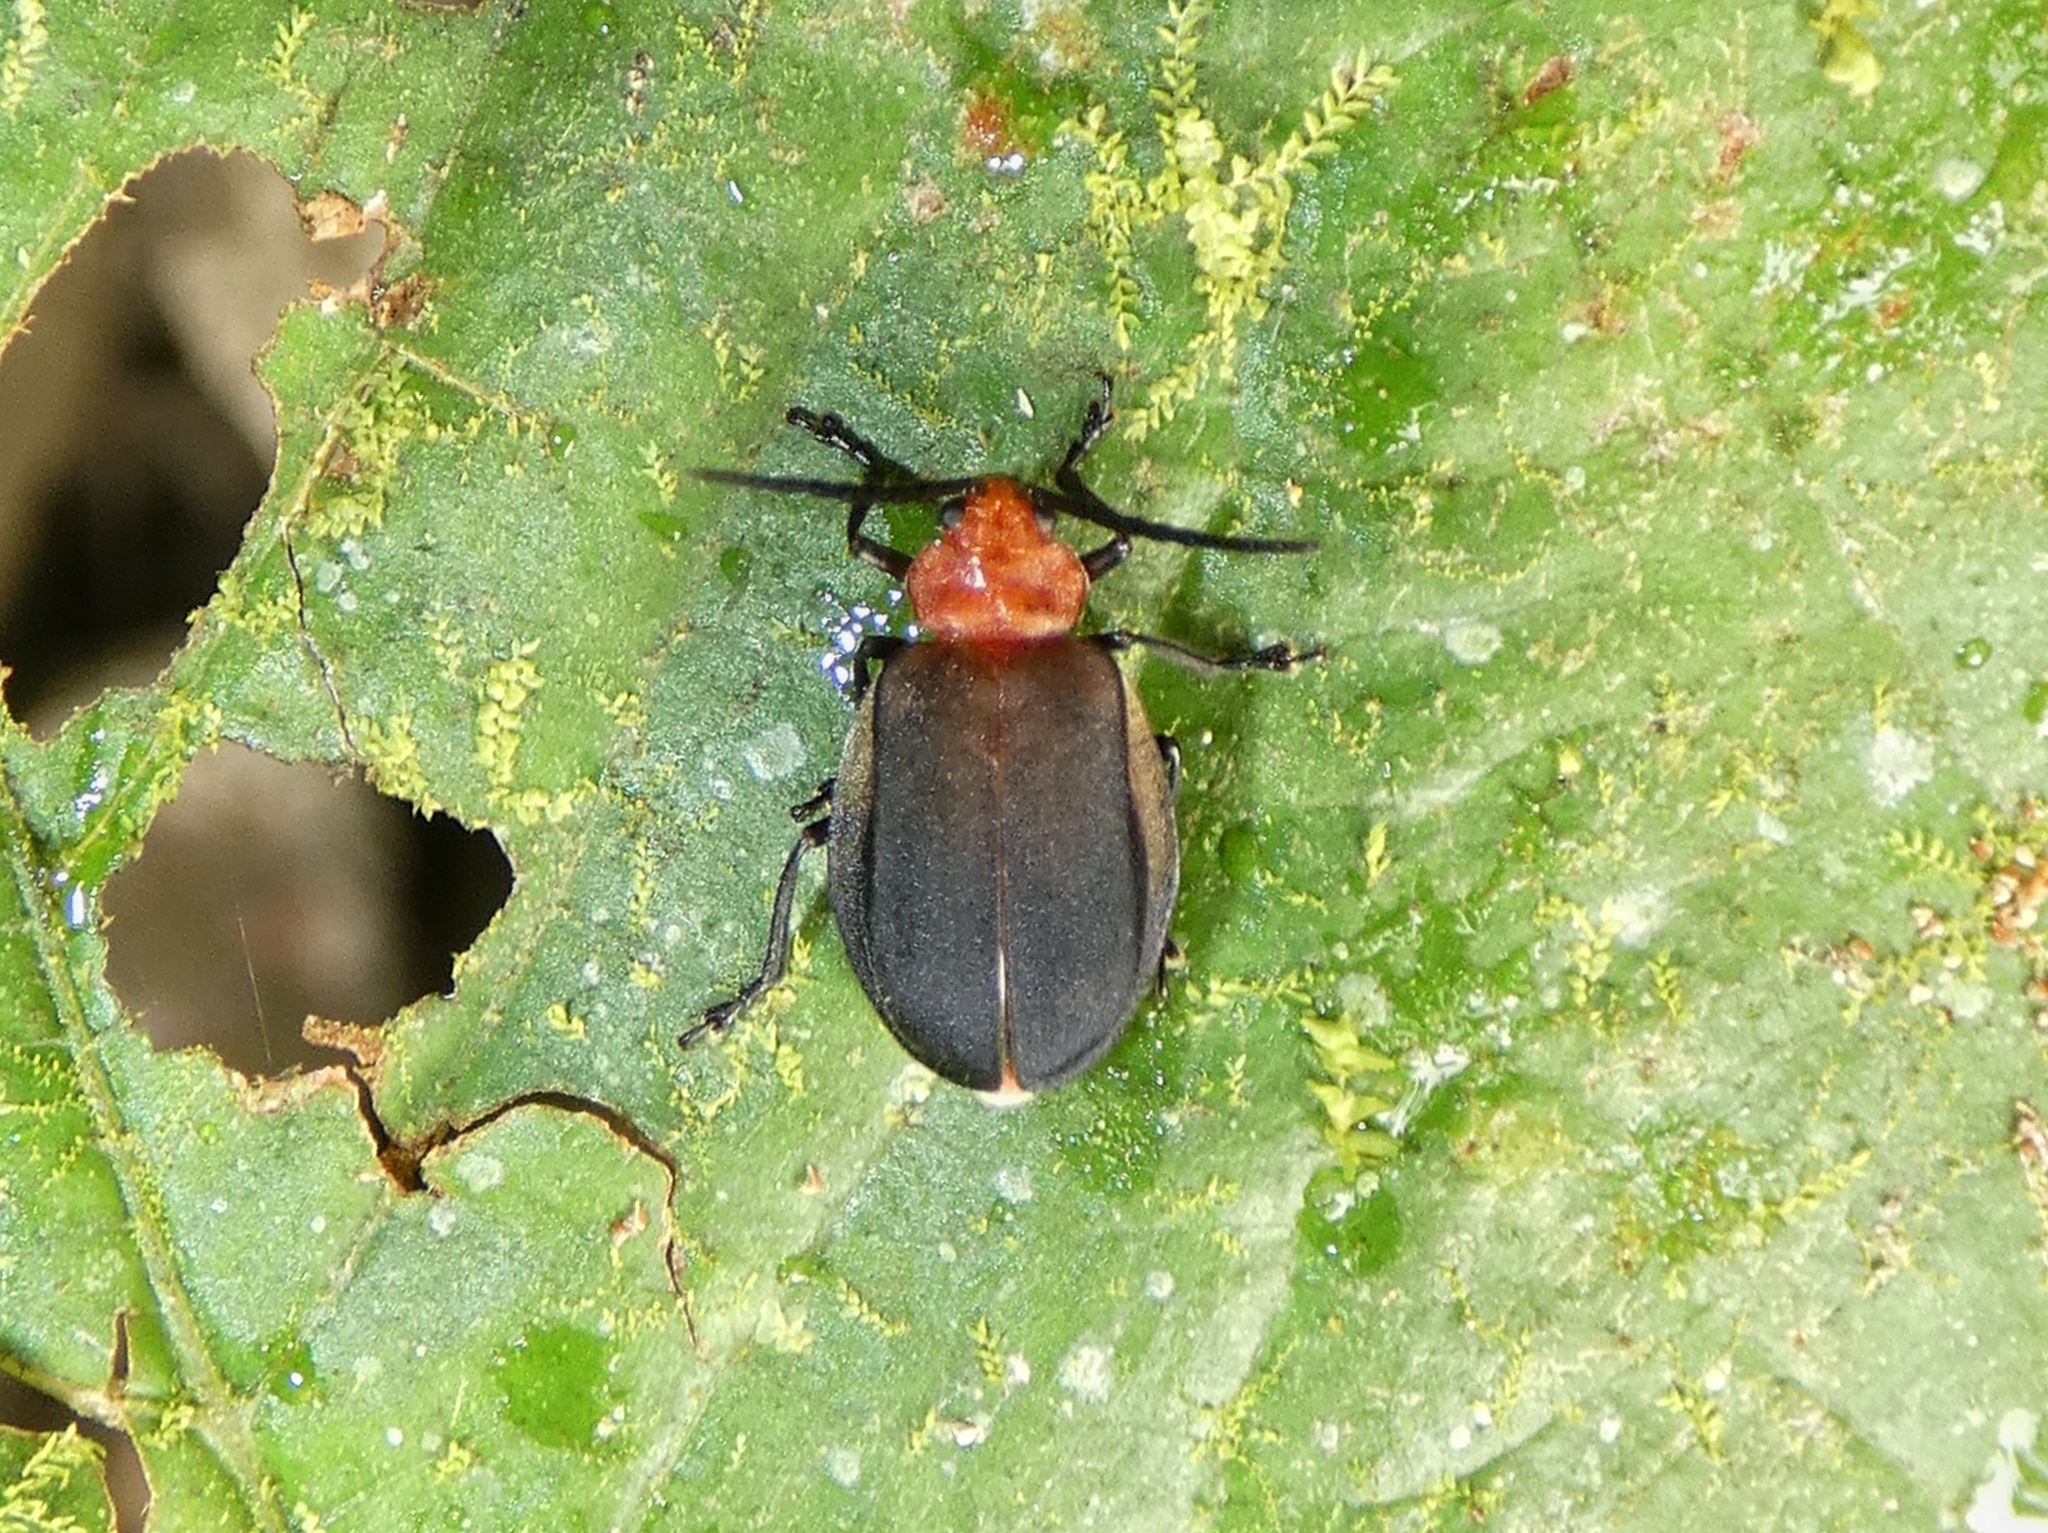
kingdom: Animalia
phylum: Arthropoda
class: Insecta
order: Coleoptera
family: Chrysomelidae
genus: Coelomera
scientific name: Coelomera cajennensis
